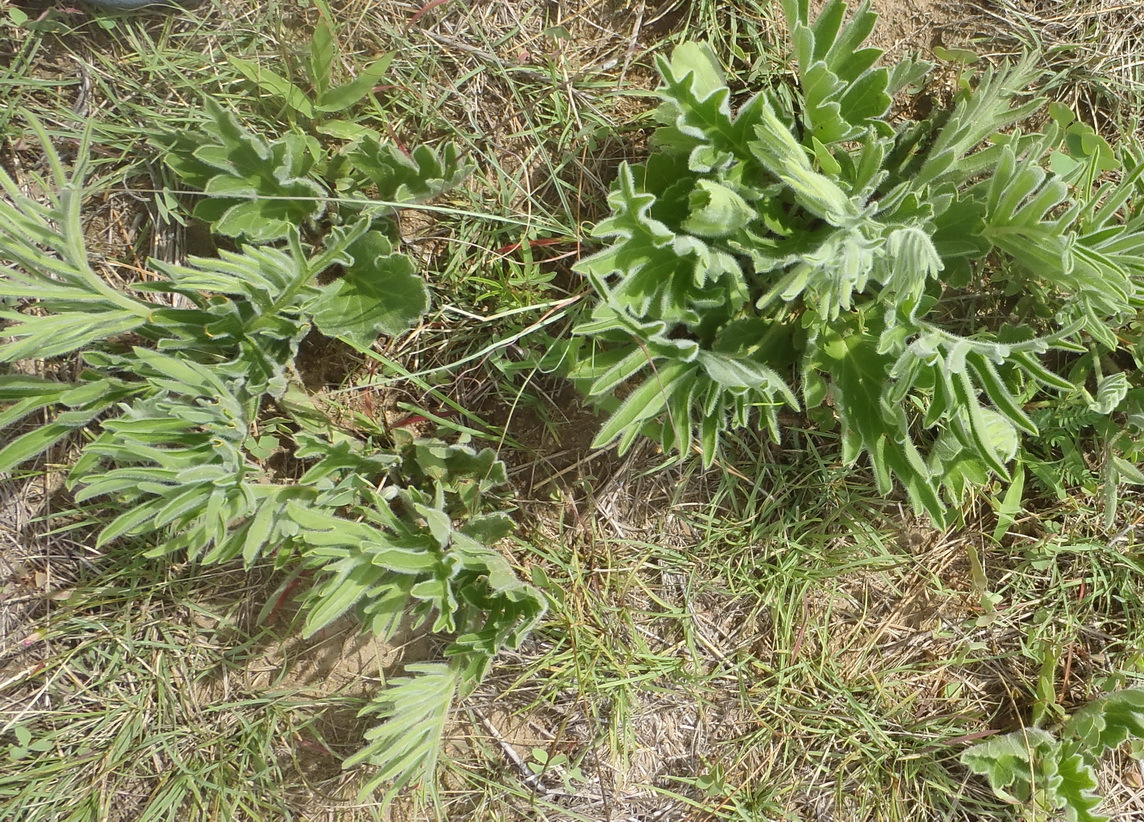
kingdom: Plantae
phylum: Tracheophyta
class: Magnoliopsida
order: Geraniales
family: Geraniaceae
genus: Pelargonium
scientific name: Pelargonium luridum
